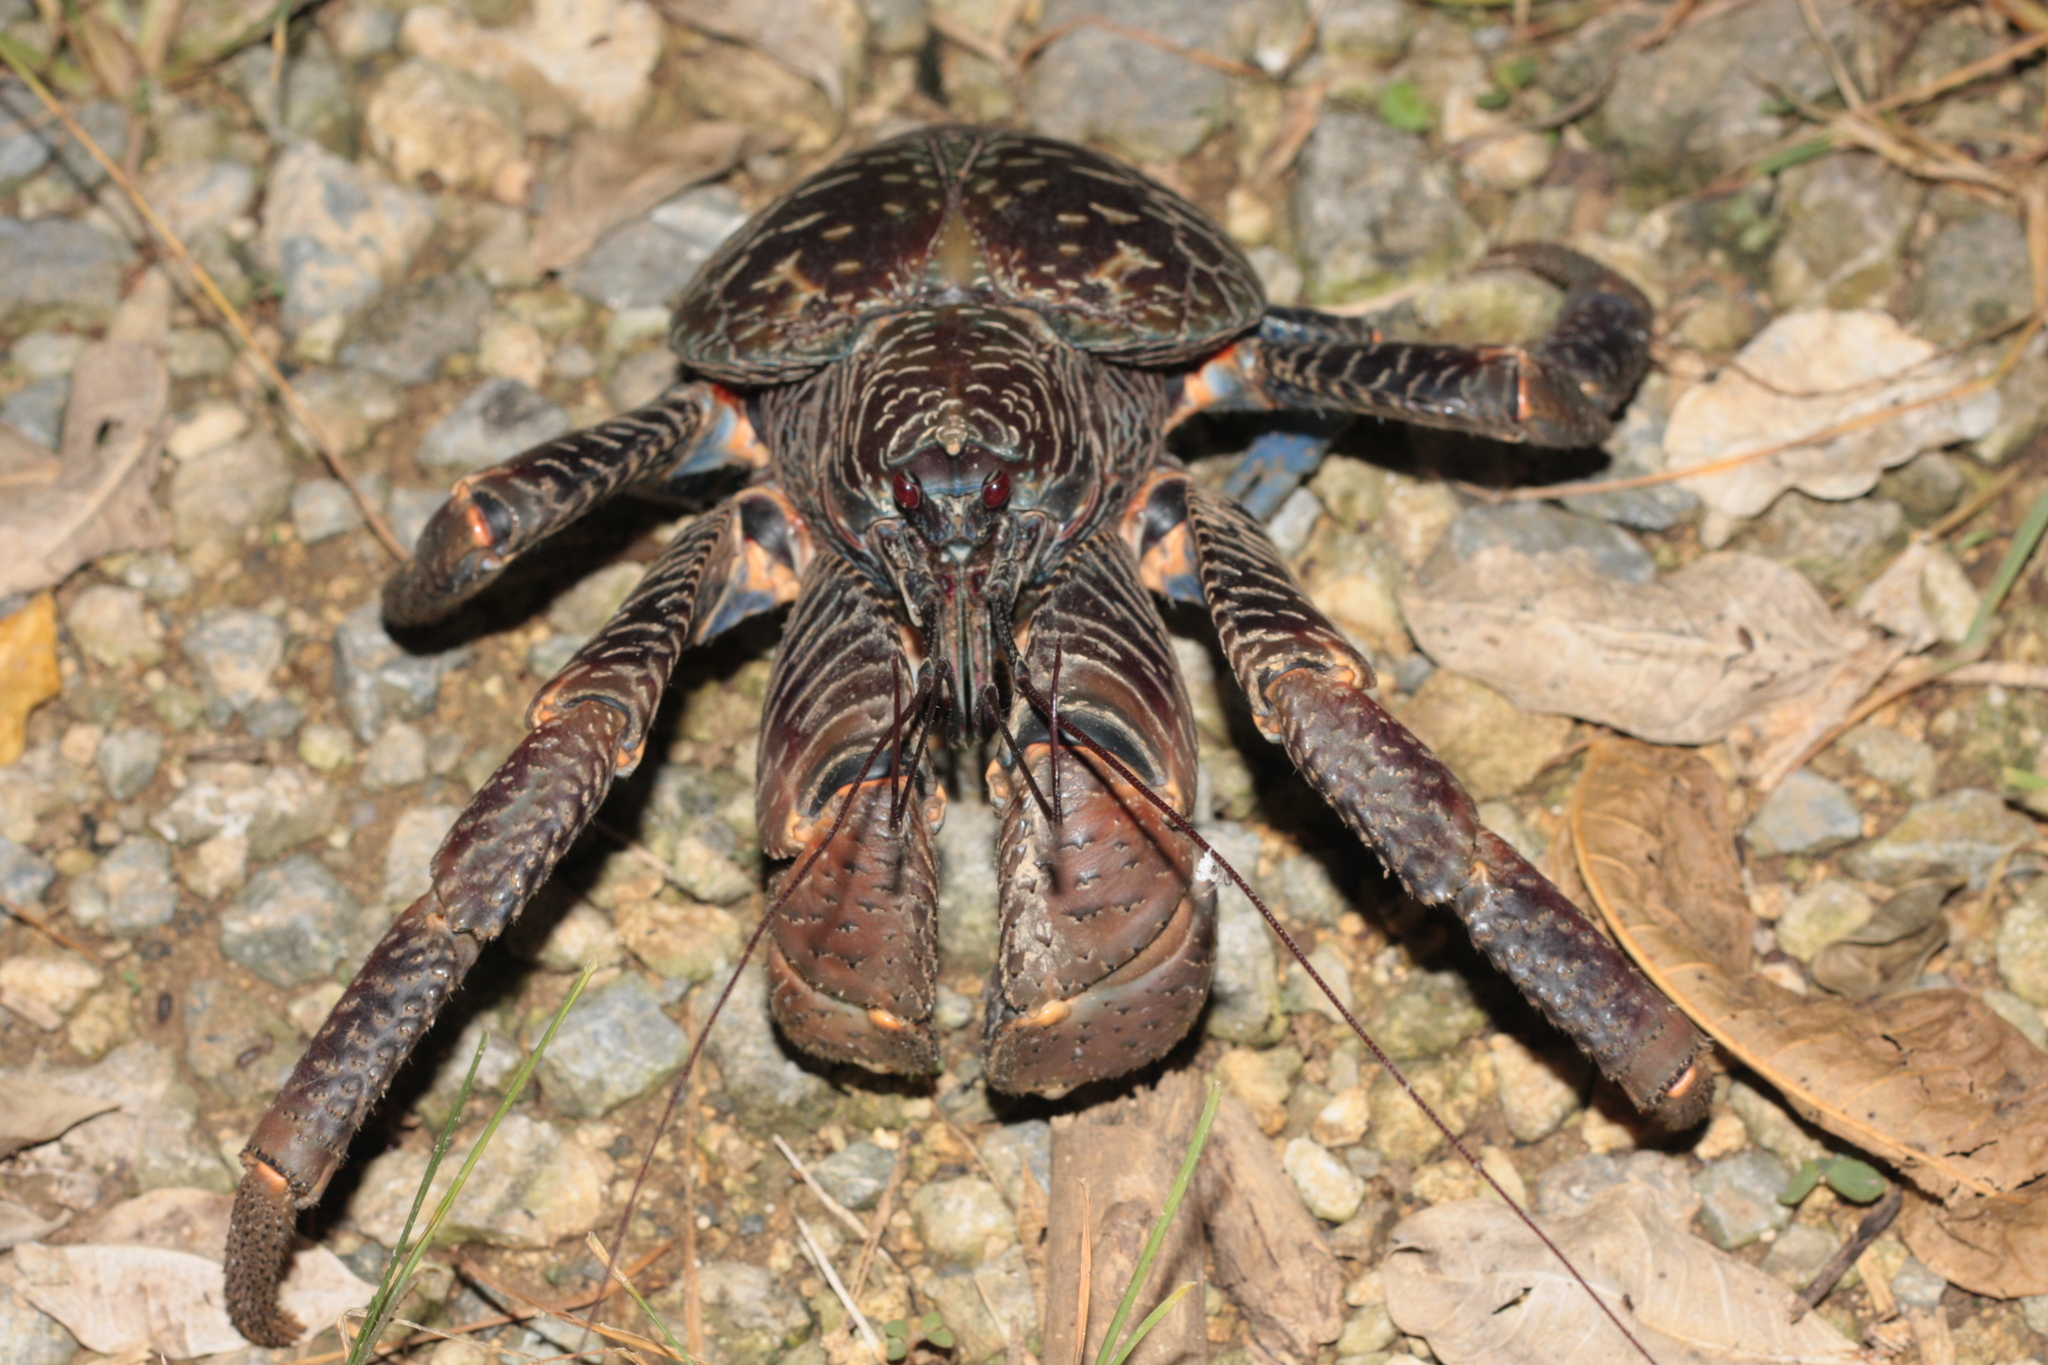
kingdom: Animalia
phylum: Arthropoda
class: Malacostraca
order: Decapoda
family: Coenobitidae
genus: Birgus
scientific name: Birgus latro
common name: Coconut crab
